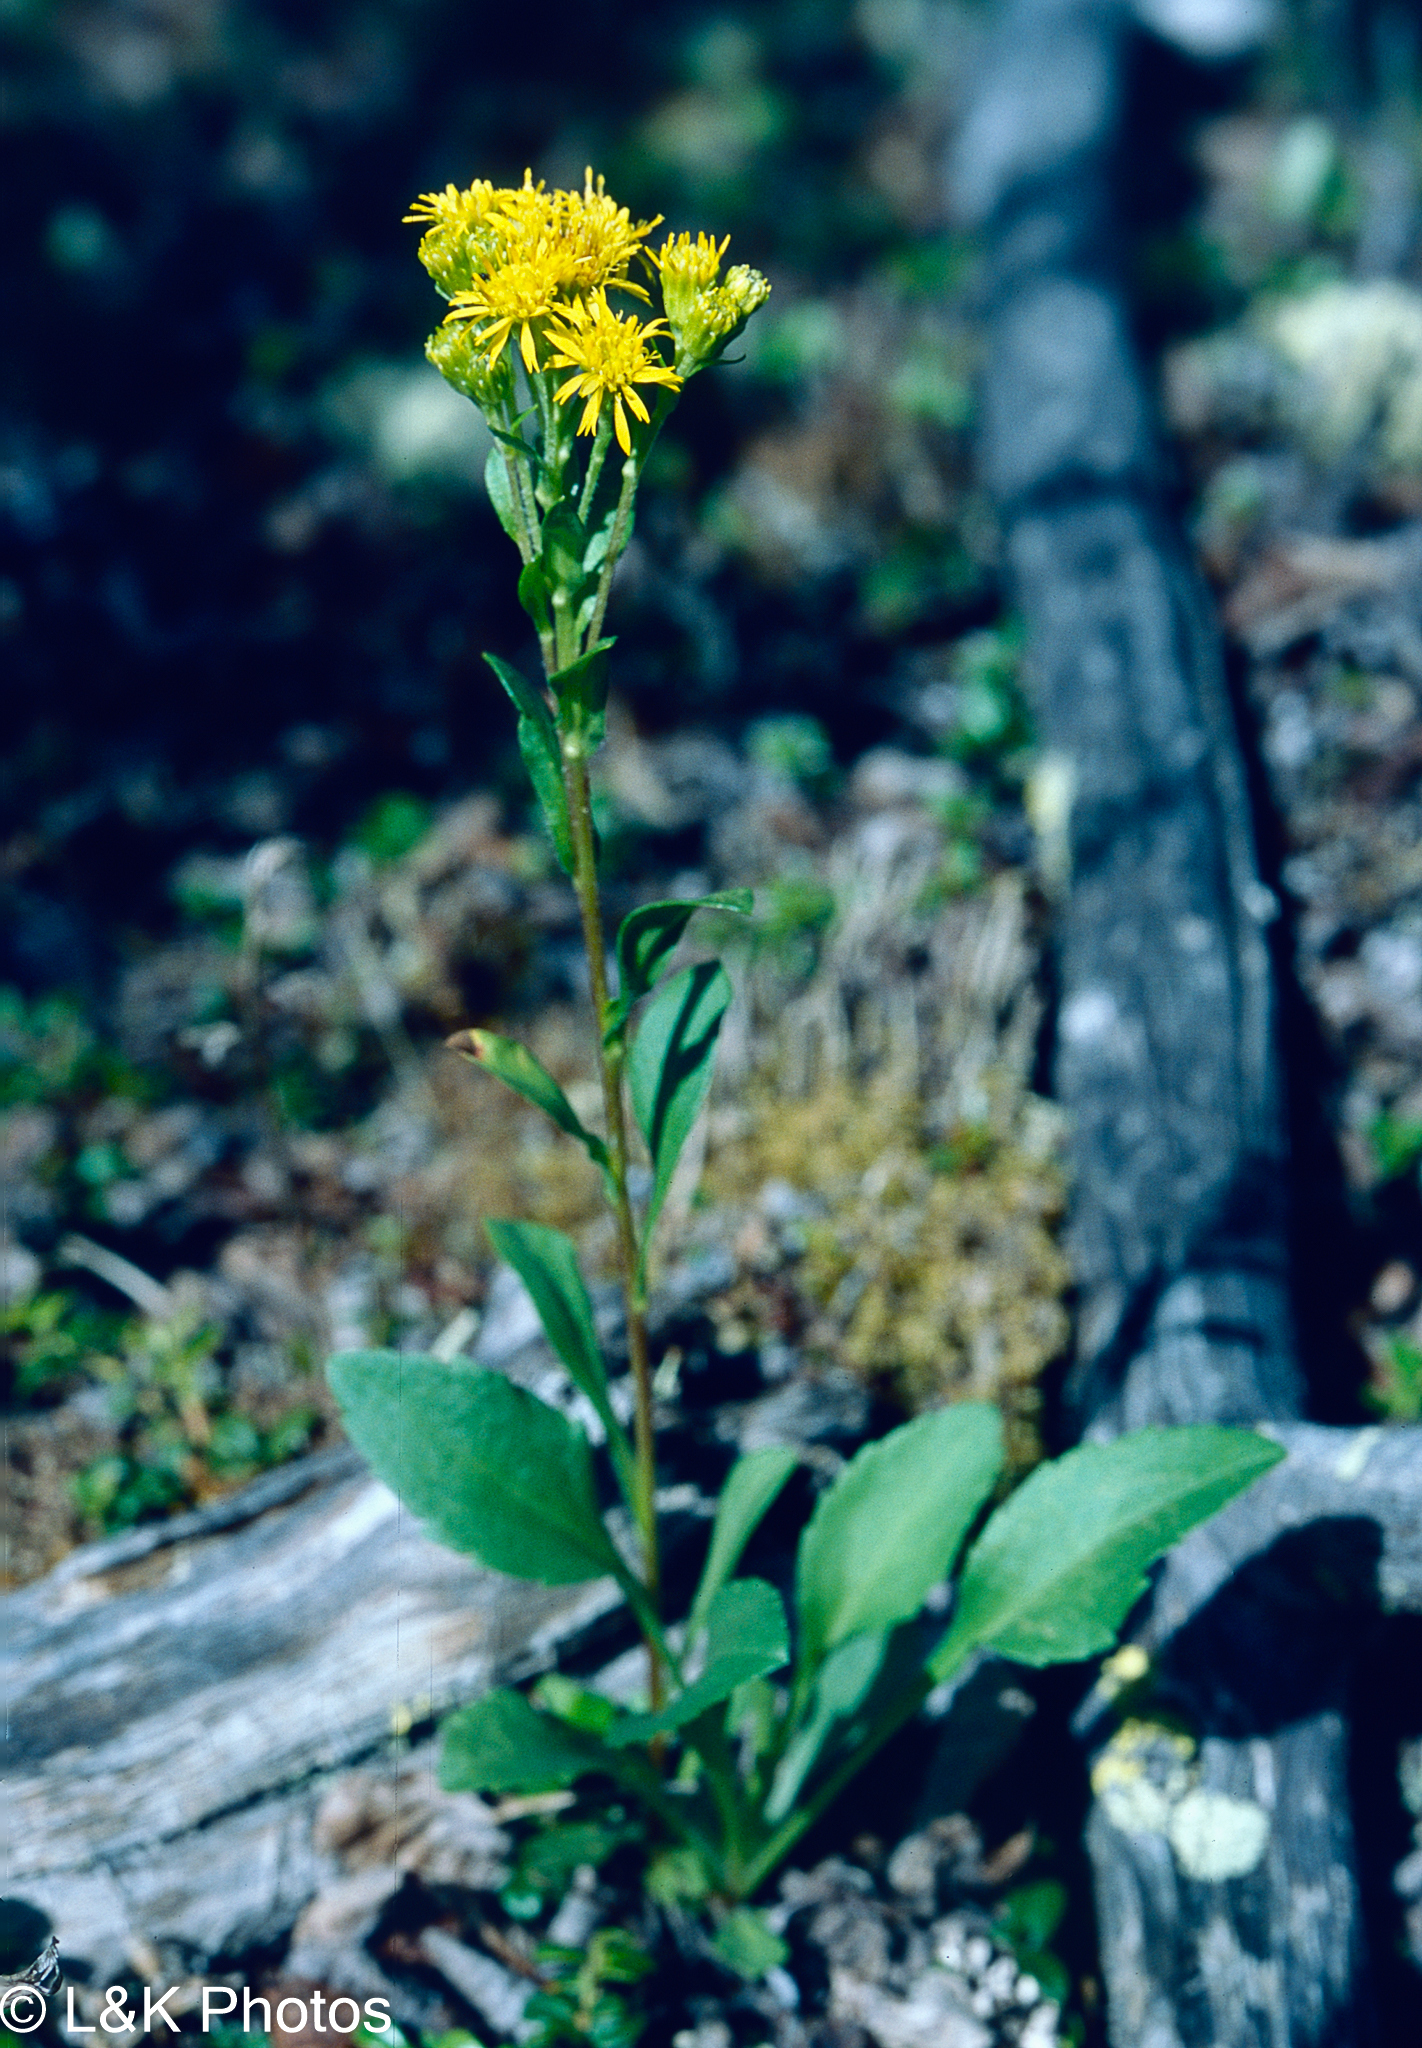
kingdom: Plantae
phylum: Tracheophyta
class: Magnoliopsida
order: Asterales
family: Asteraceae
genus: Solidago
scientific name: Solidago multiradiata
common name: Northern goldenrod
